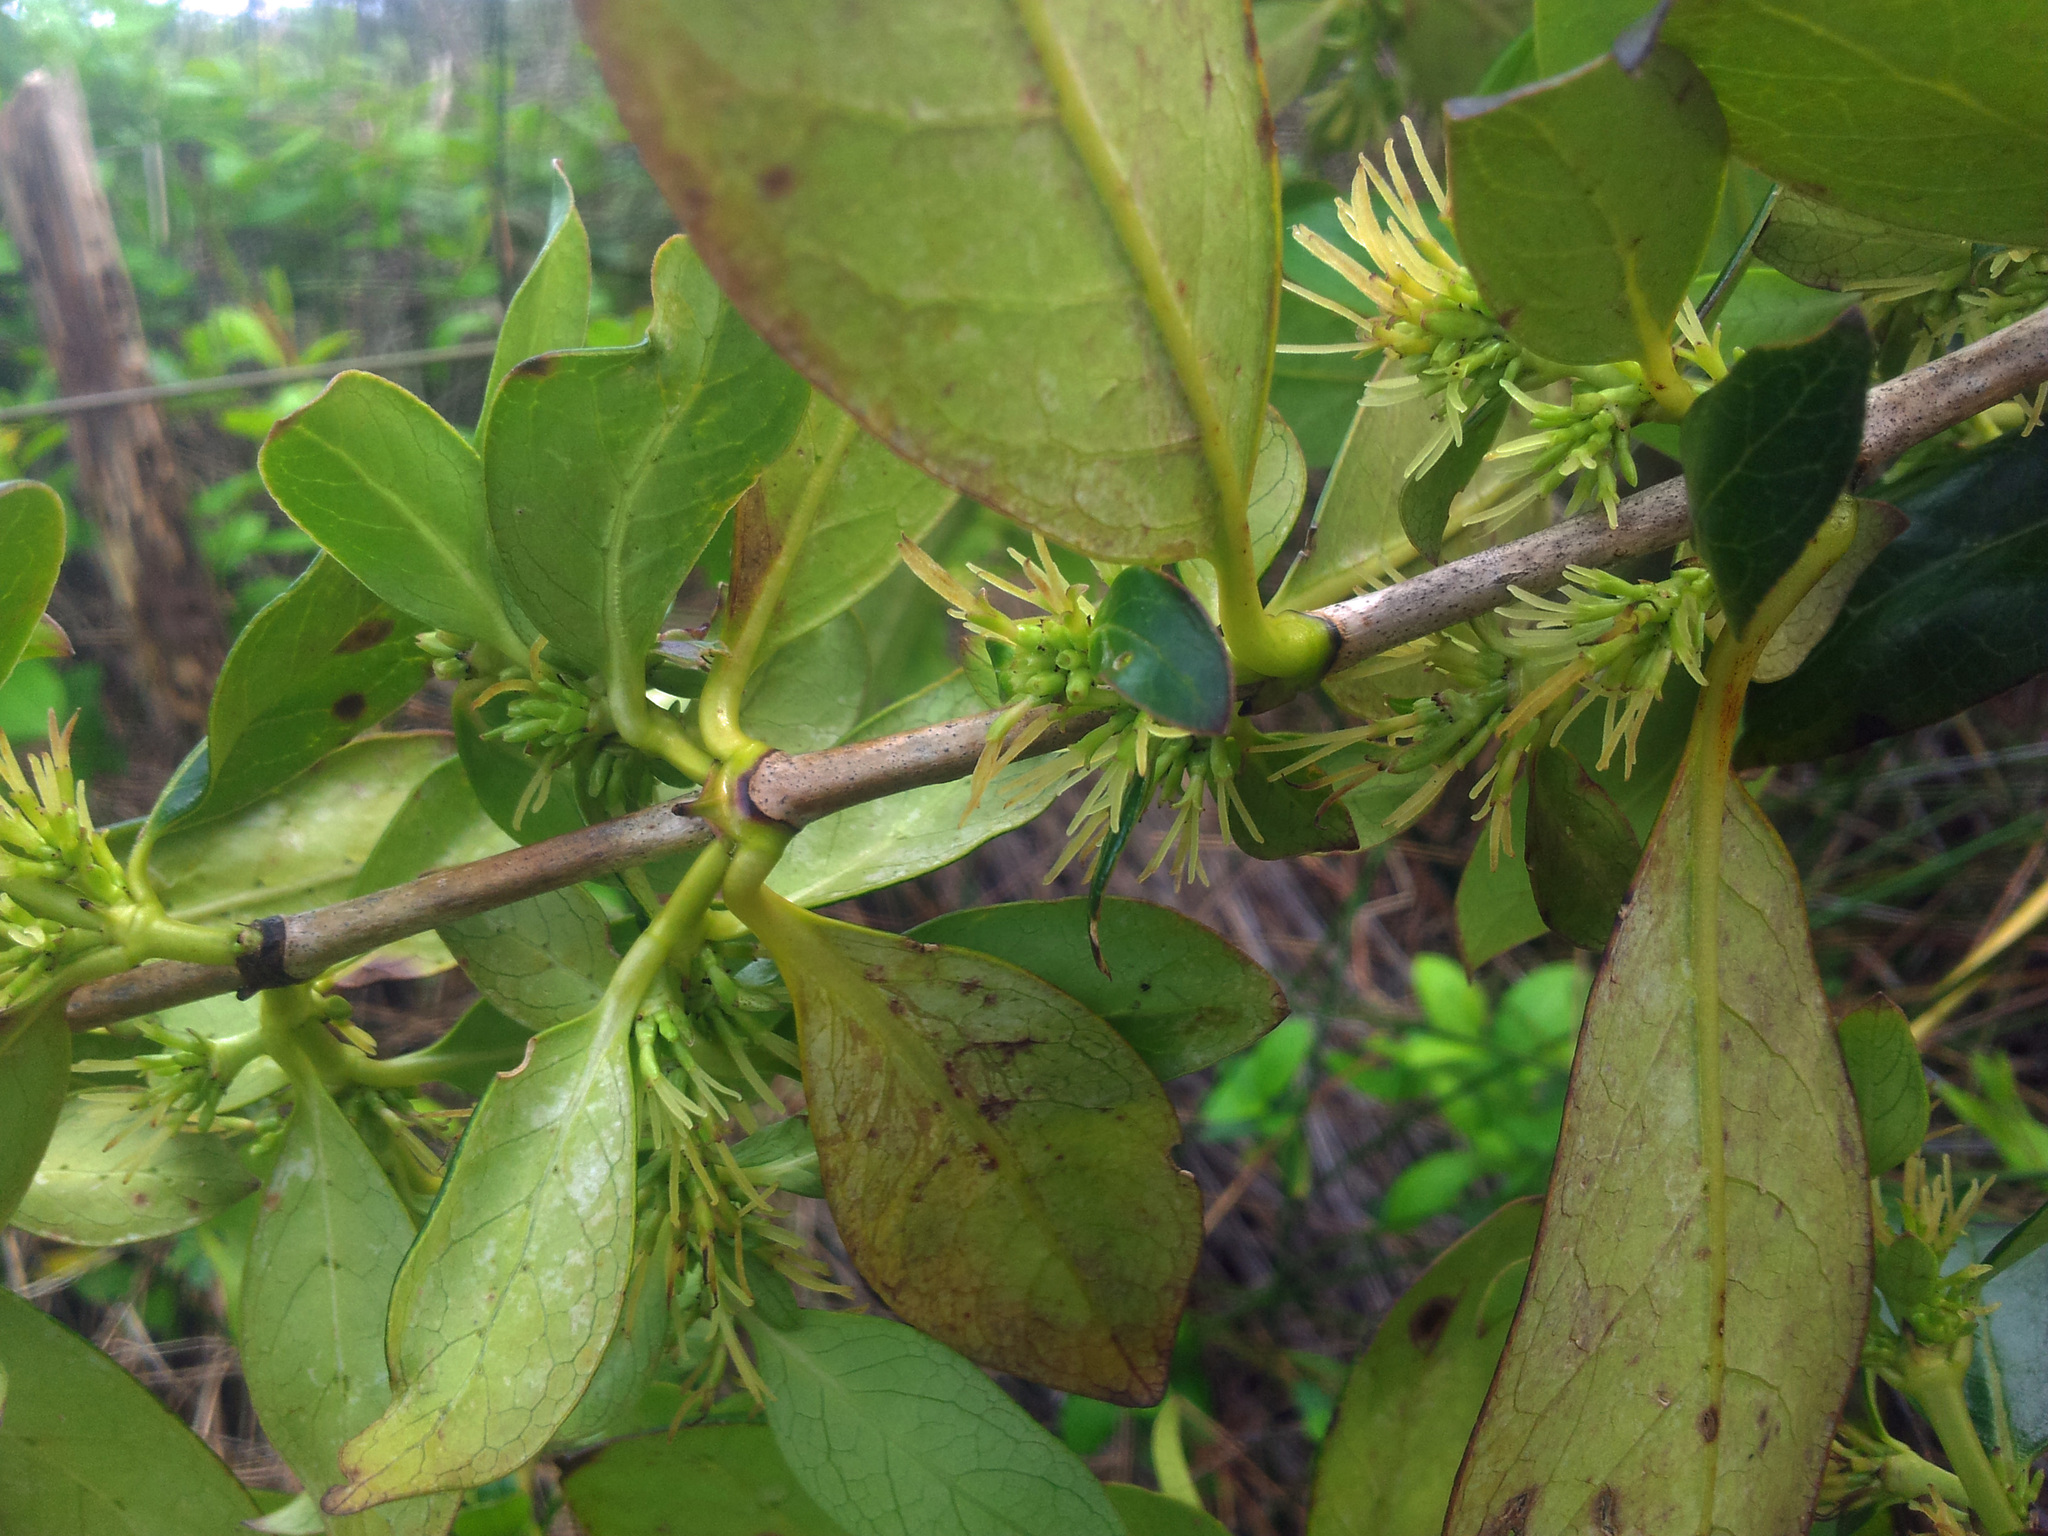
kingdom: Plantae
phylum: Tracheophyta
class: Magnoliopsida
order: Gentianales
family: Rubiaceae
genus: Coprosma
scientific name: Coprosma cunninghamii
